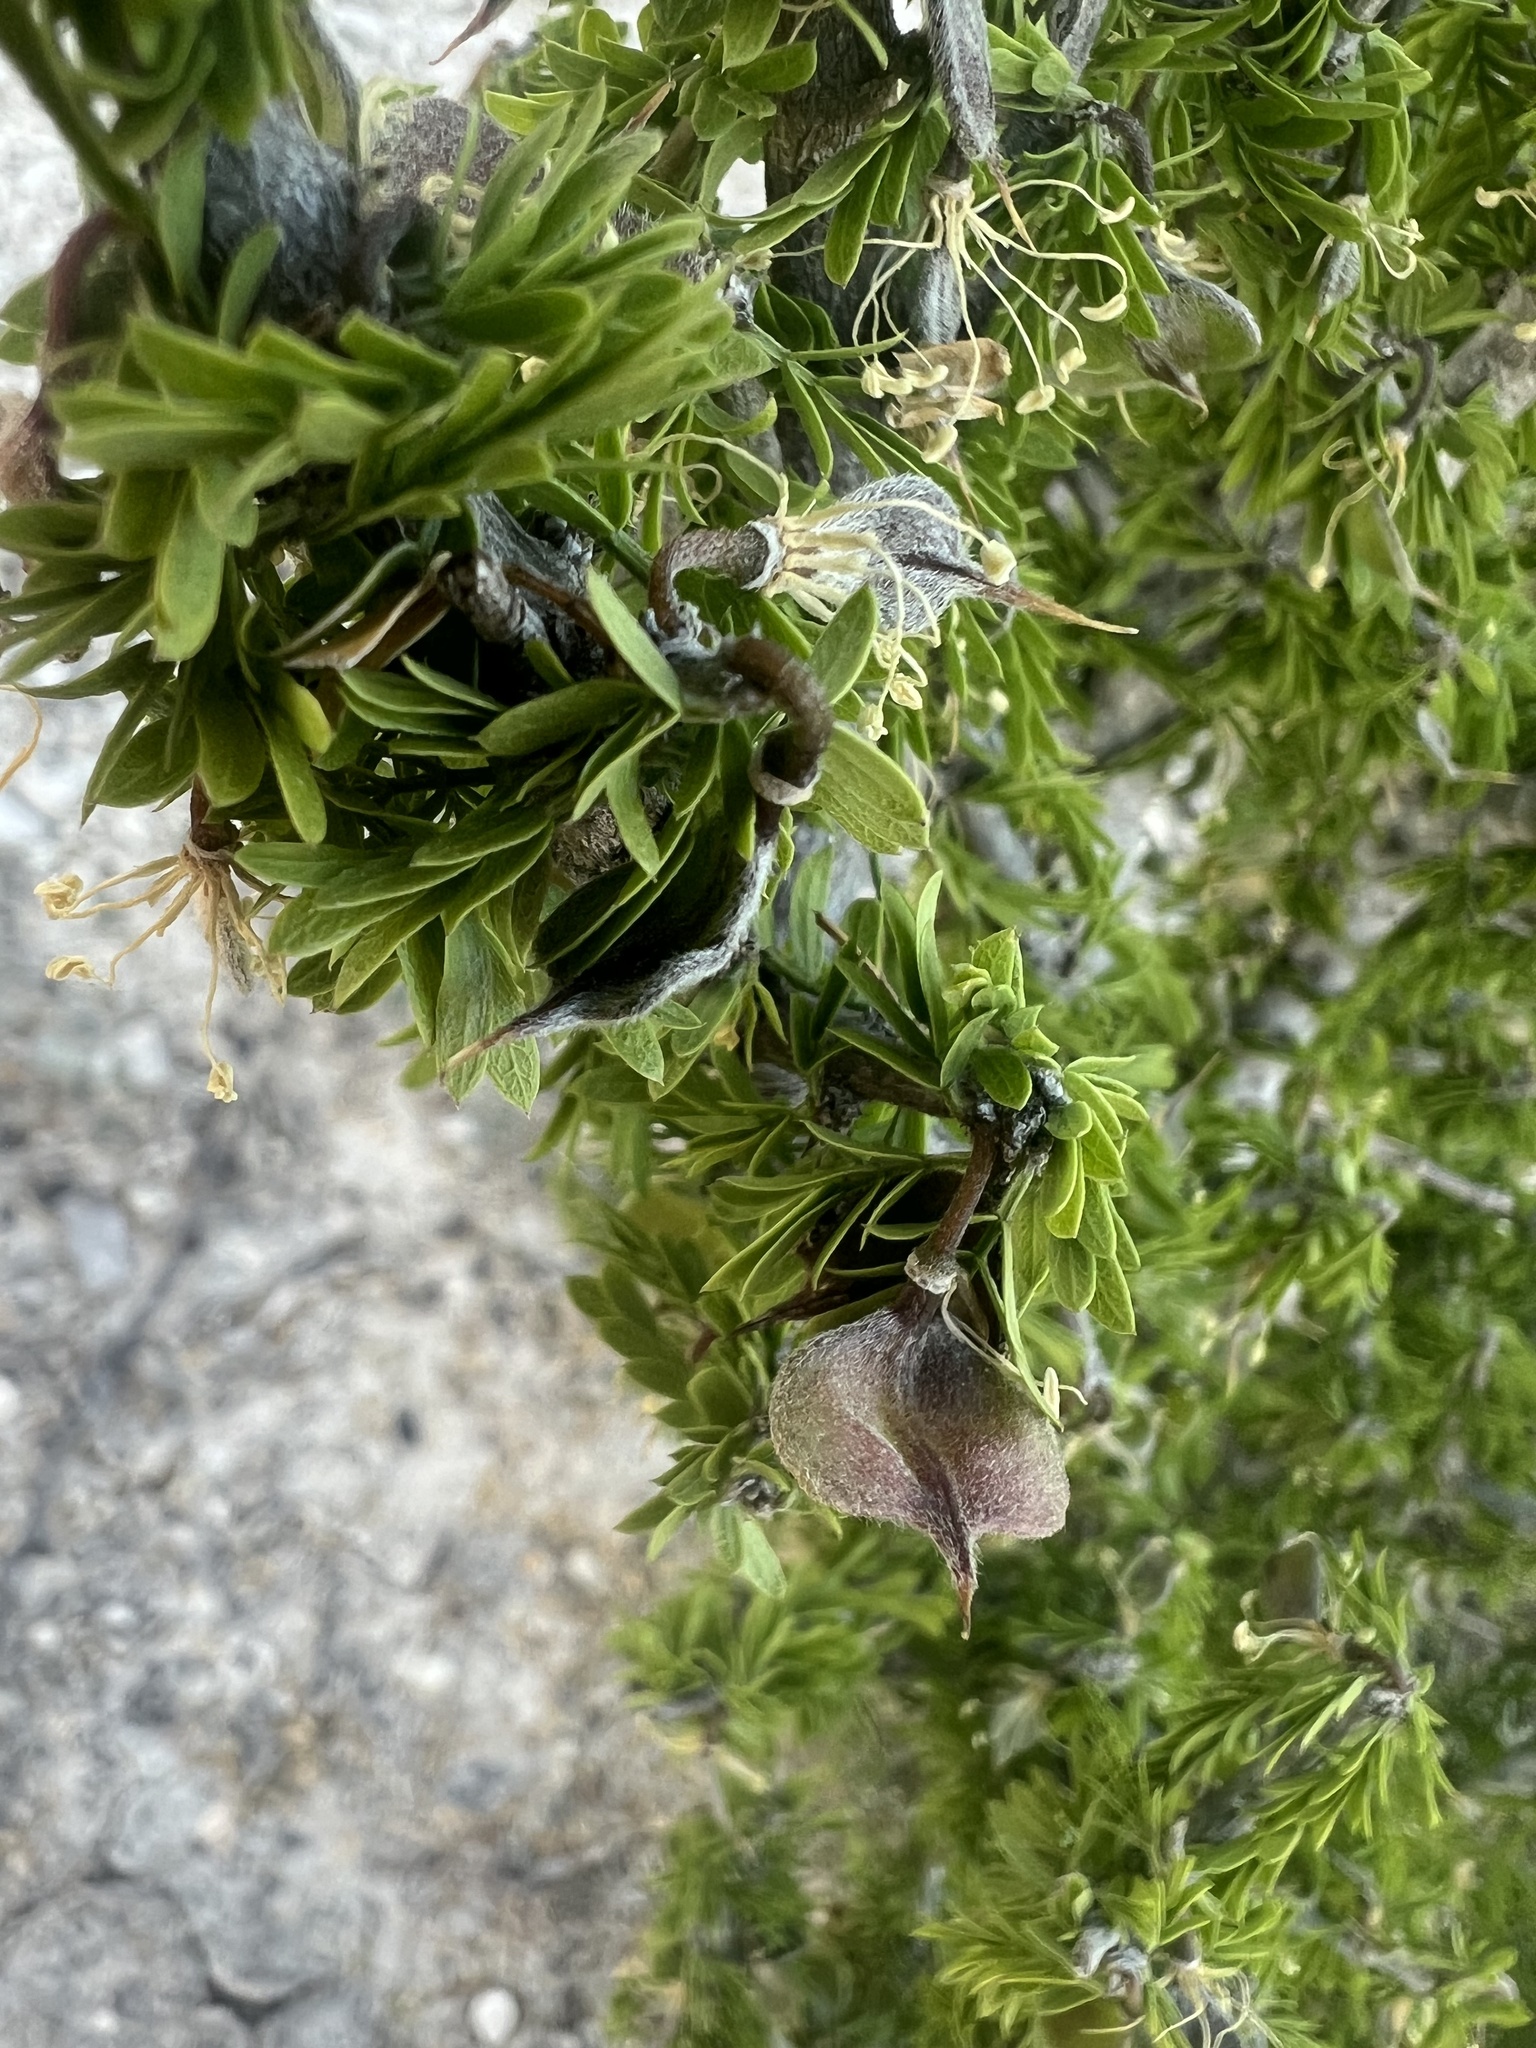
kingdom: Plantae
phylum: Tracheophyta
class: Magnoliopsida
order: Zygophyllales
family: Zygophyllaceae
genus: Porlieria
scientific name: Porlieria angustifolia
